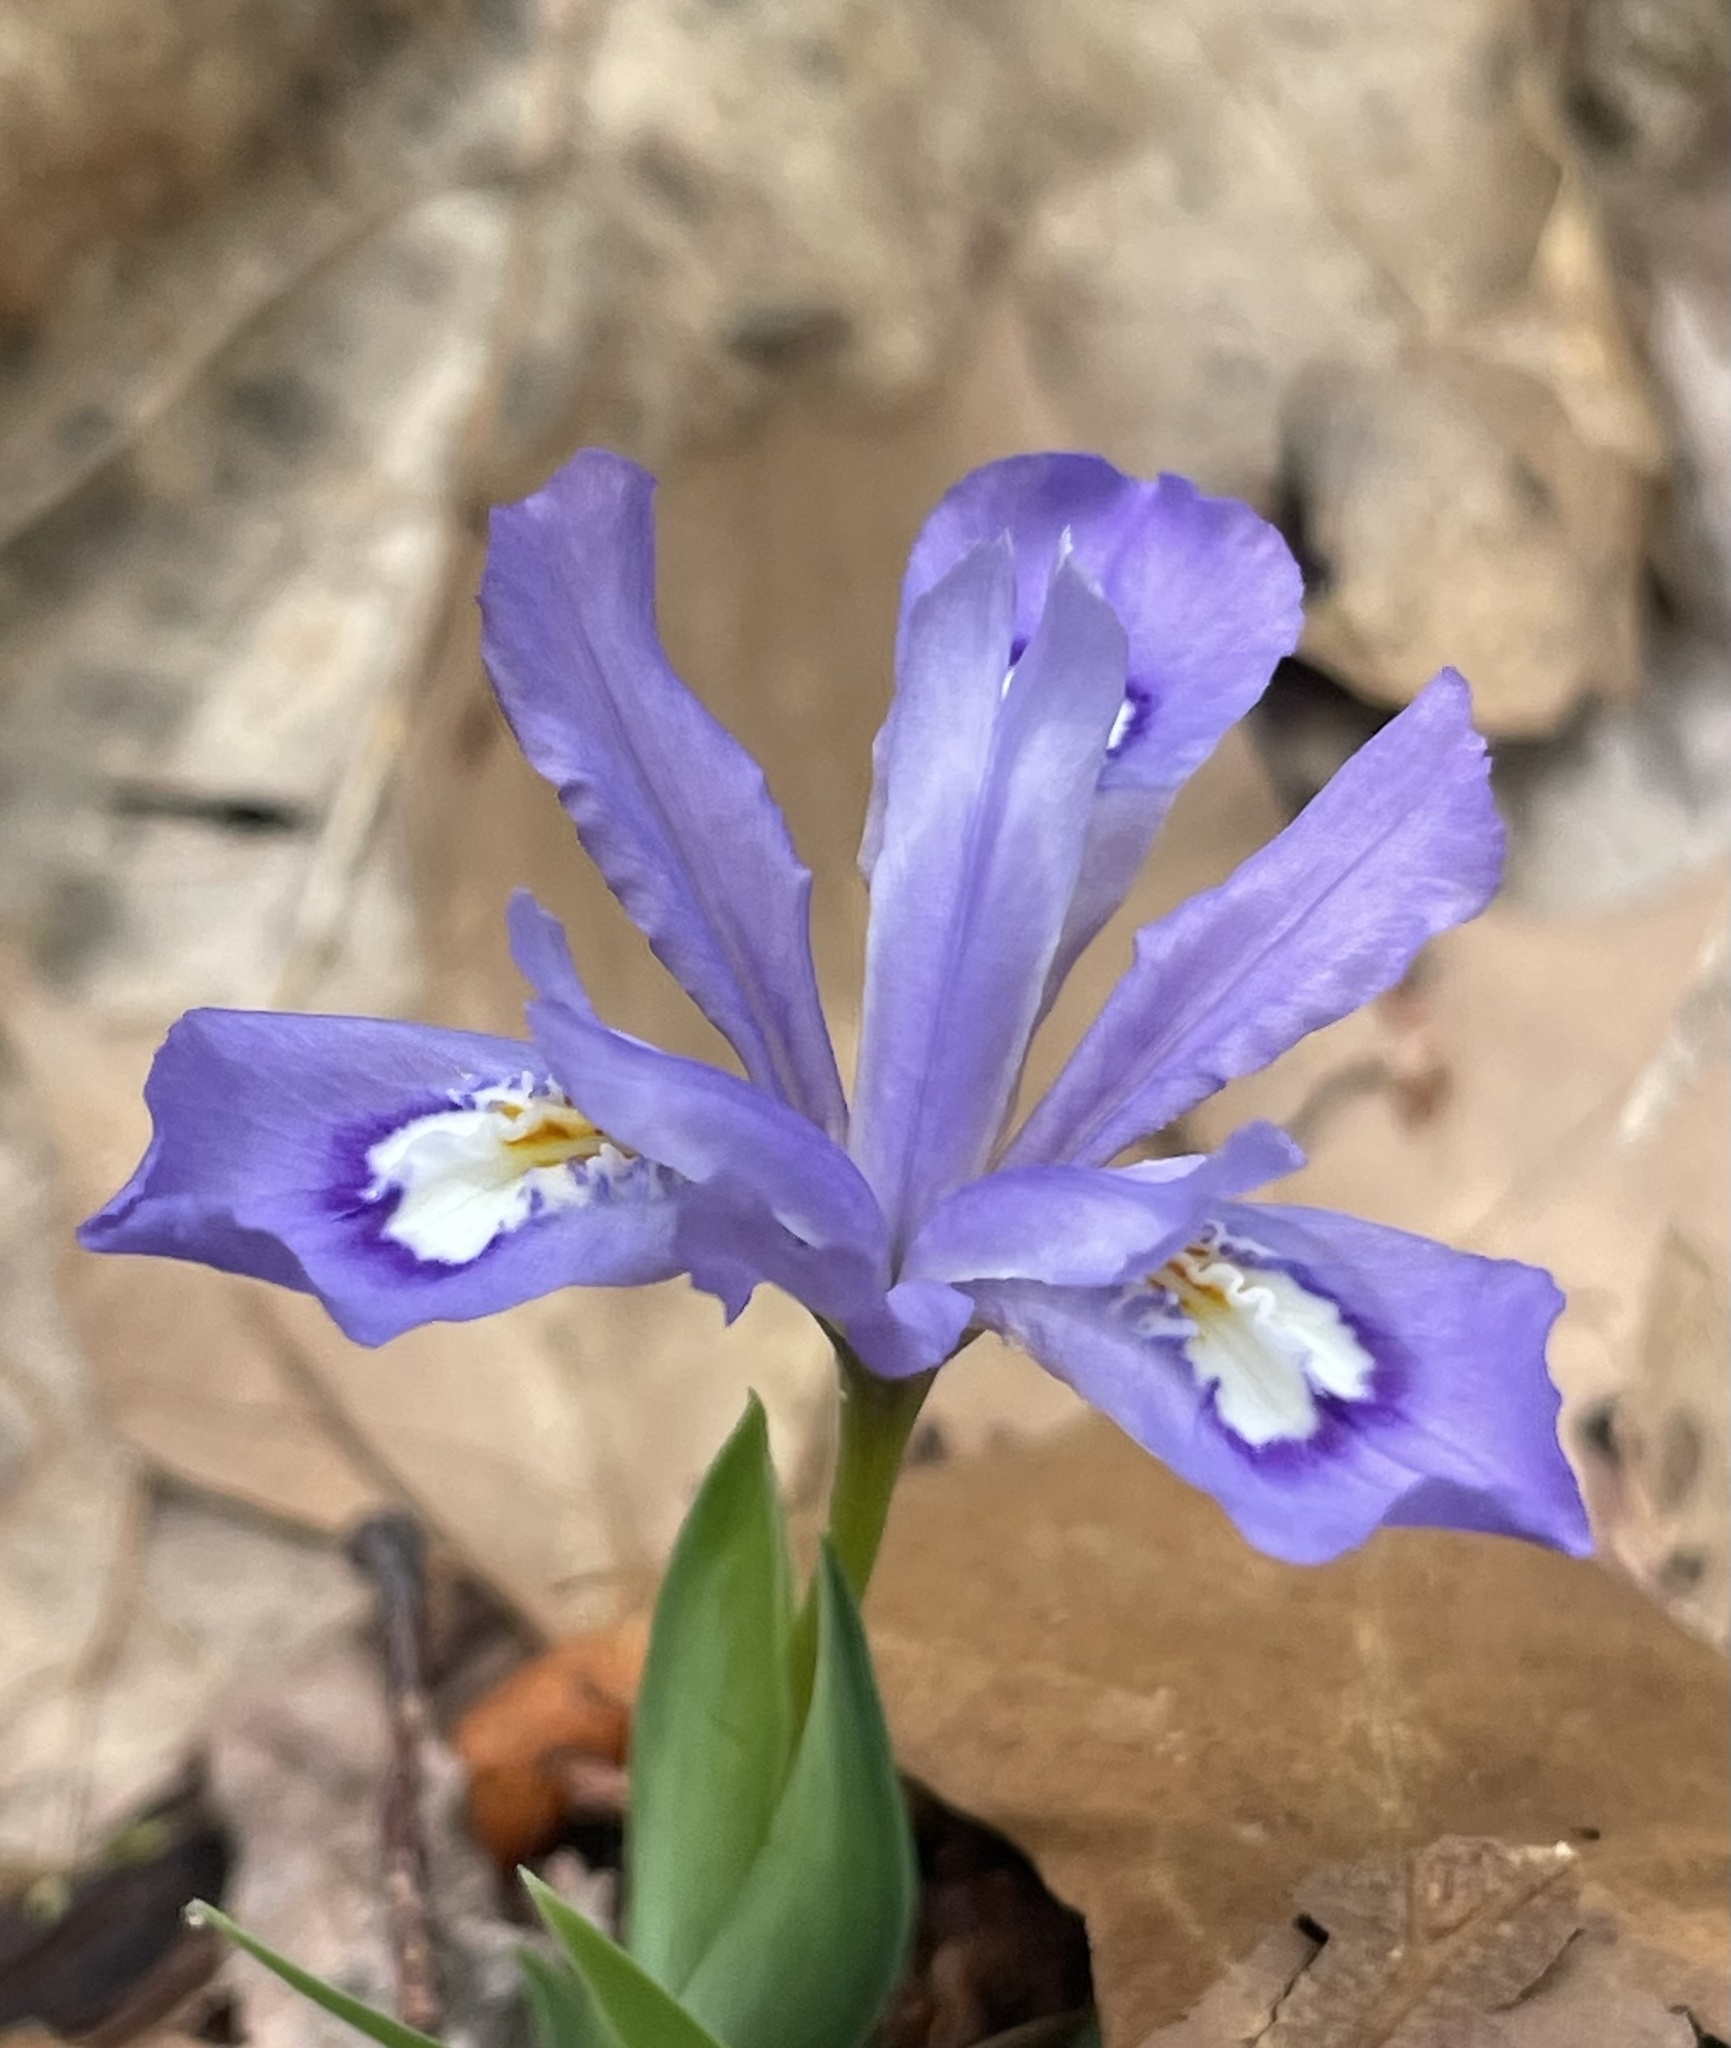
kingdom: Plantae
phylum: Tracheophyta
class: Liliopsida
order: Asparagales
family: Iridaceae
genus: Iris
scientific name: Iris cristata
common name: Crested iris
